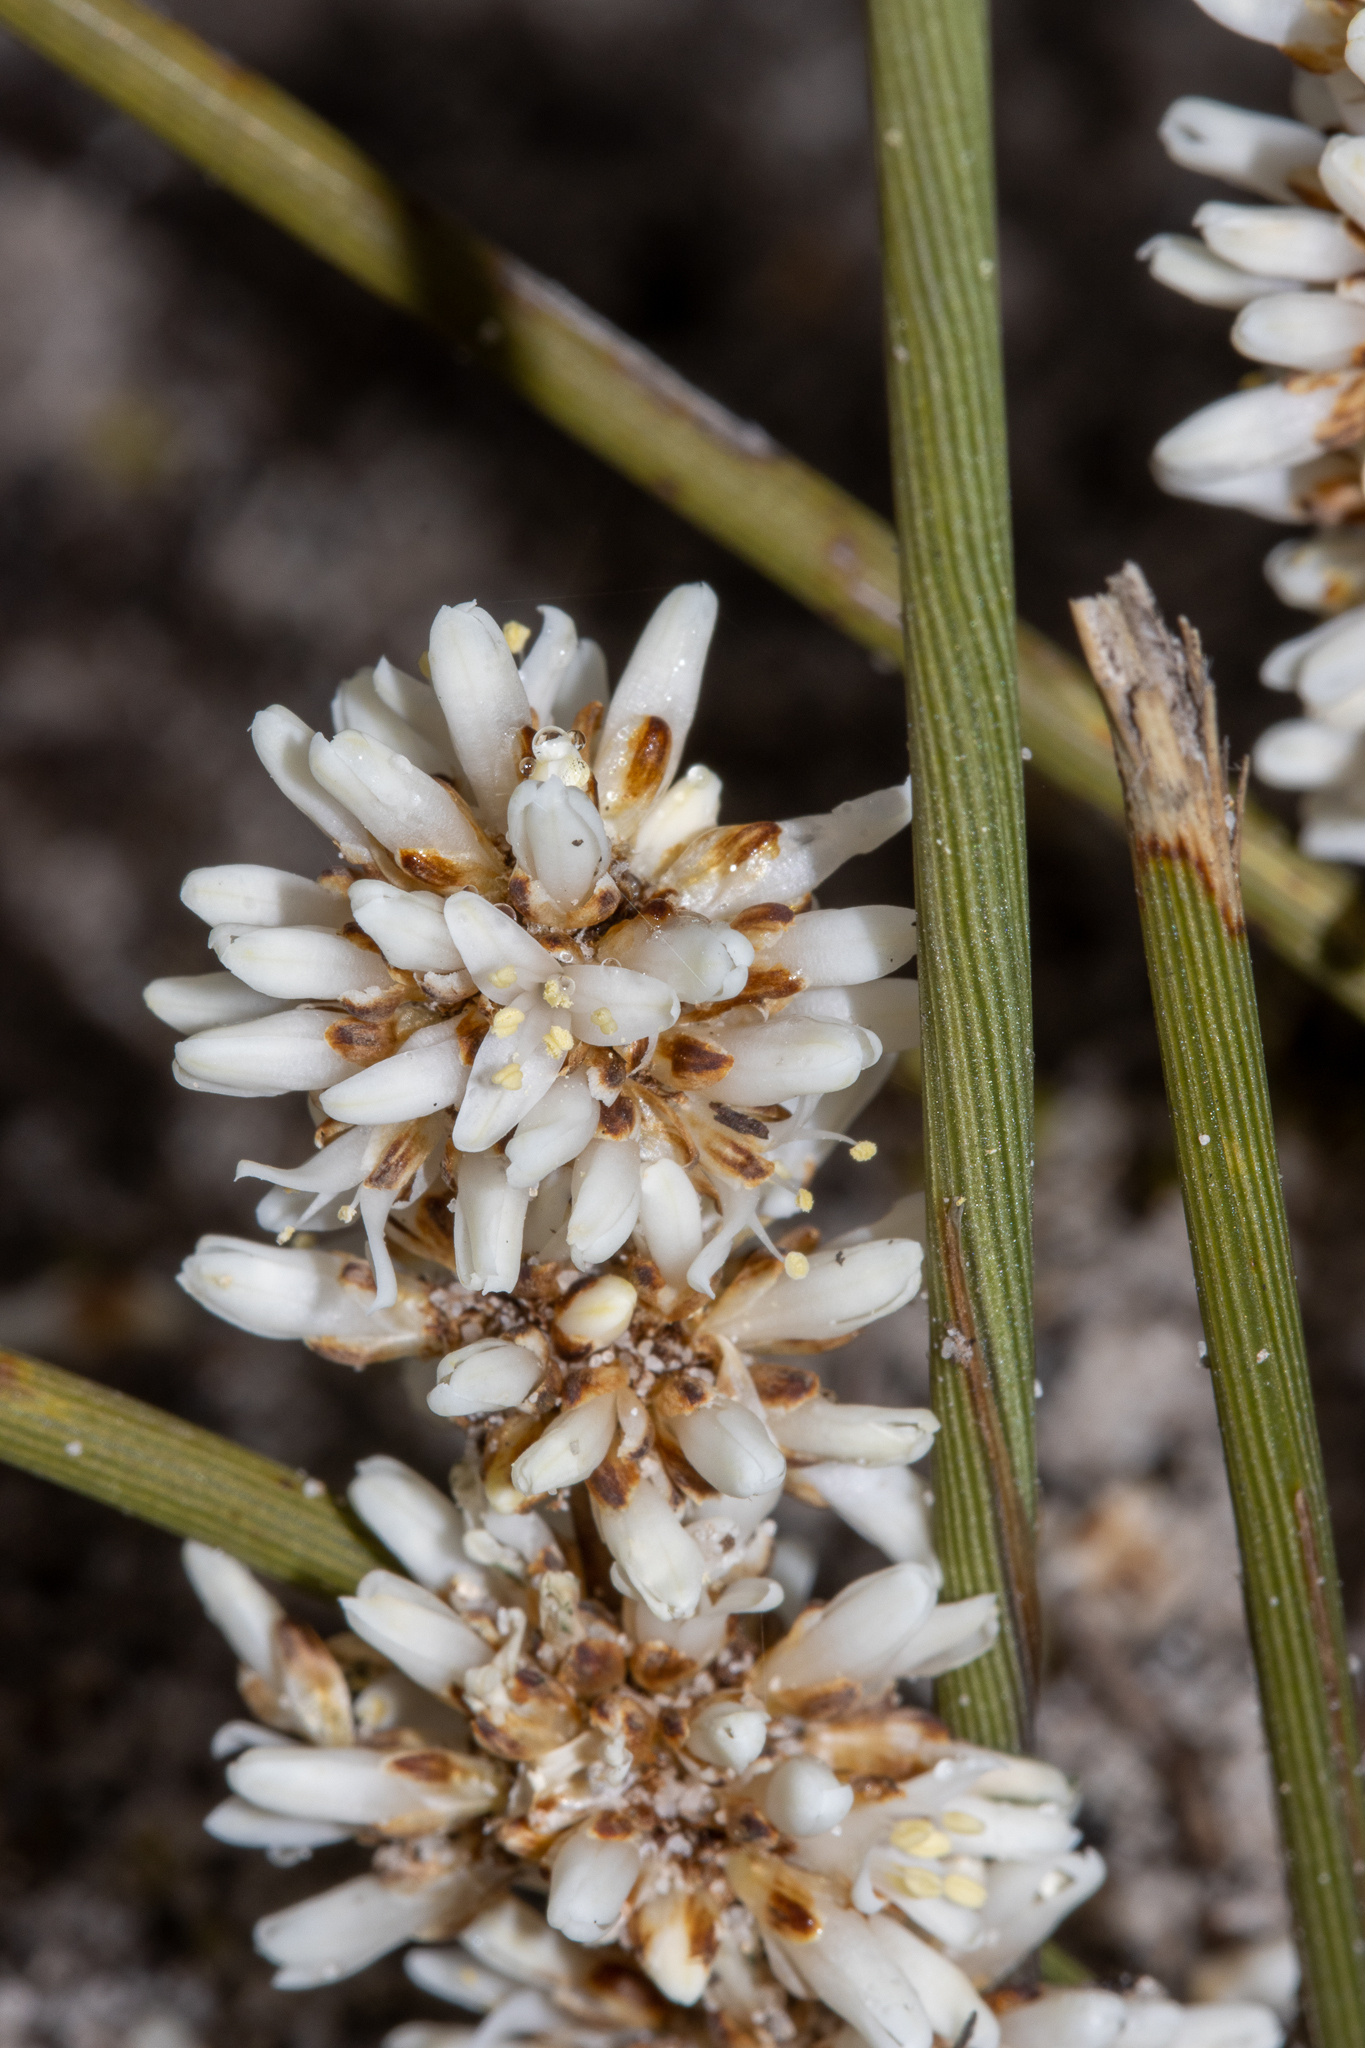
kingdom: Plantae
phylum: Tracheophyta
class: Liliopsida
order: Asparagales
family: Asparagaceae
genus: Lomandra
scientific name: Lomandra juncea
